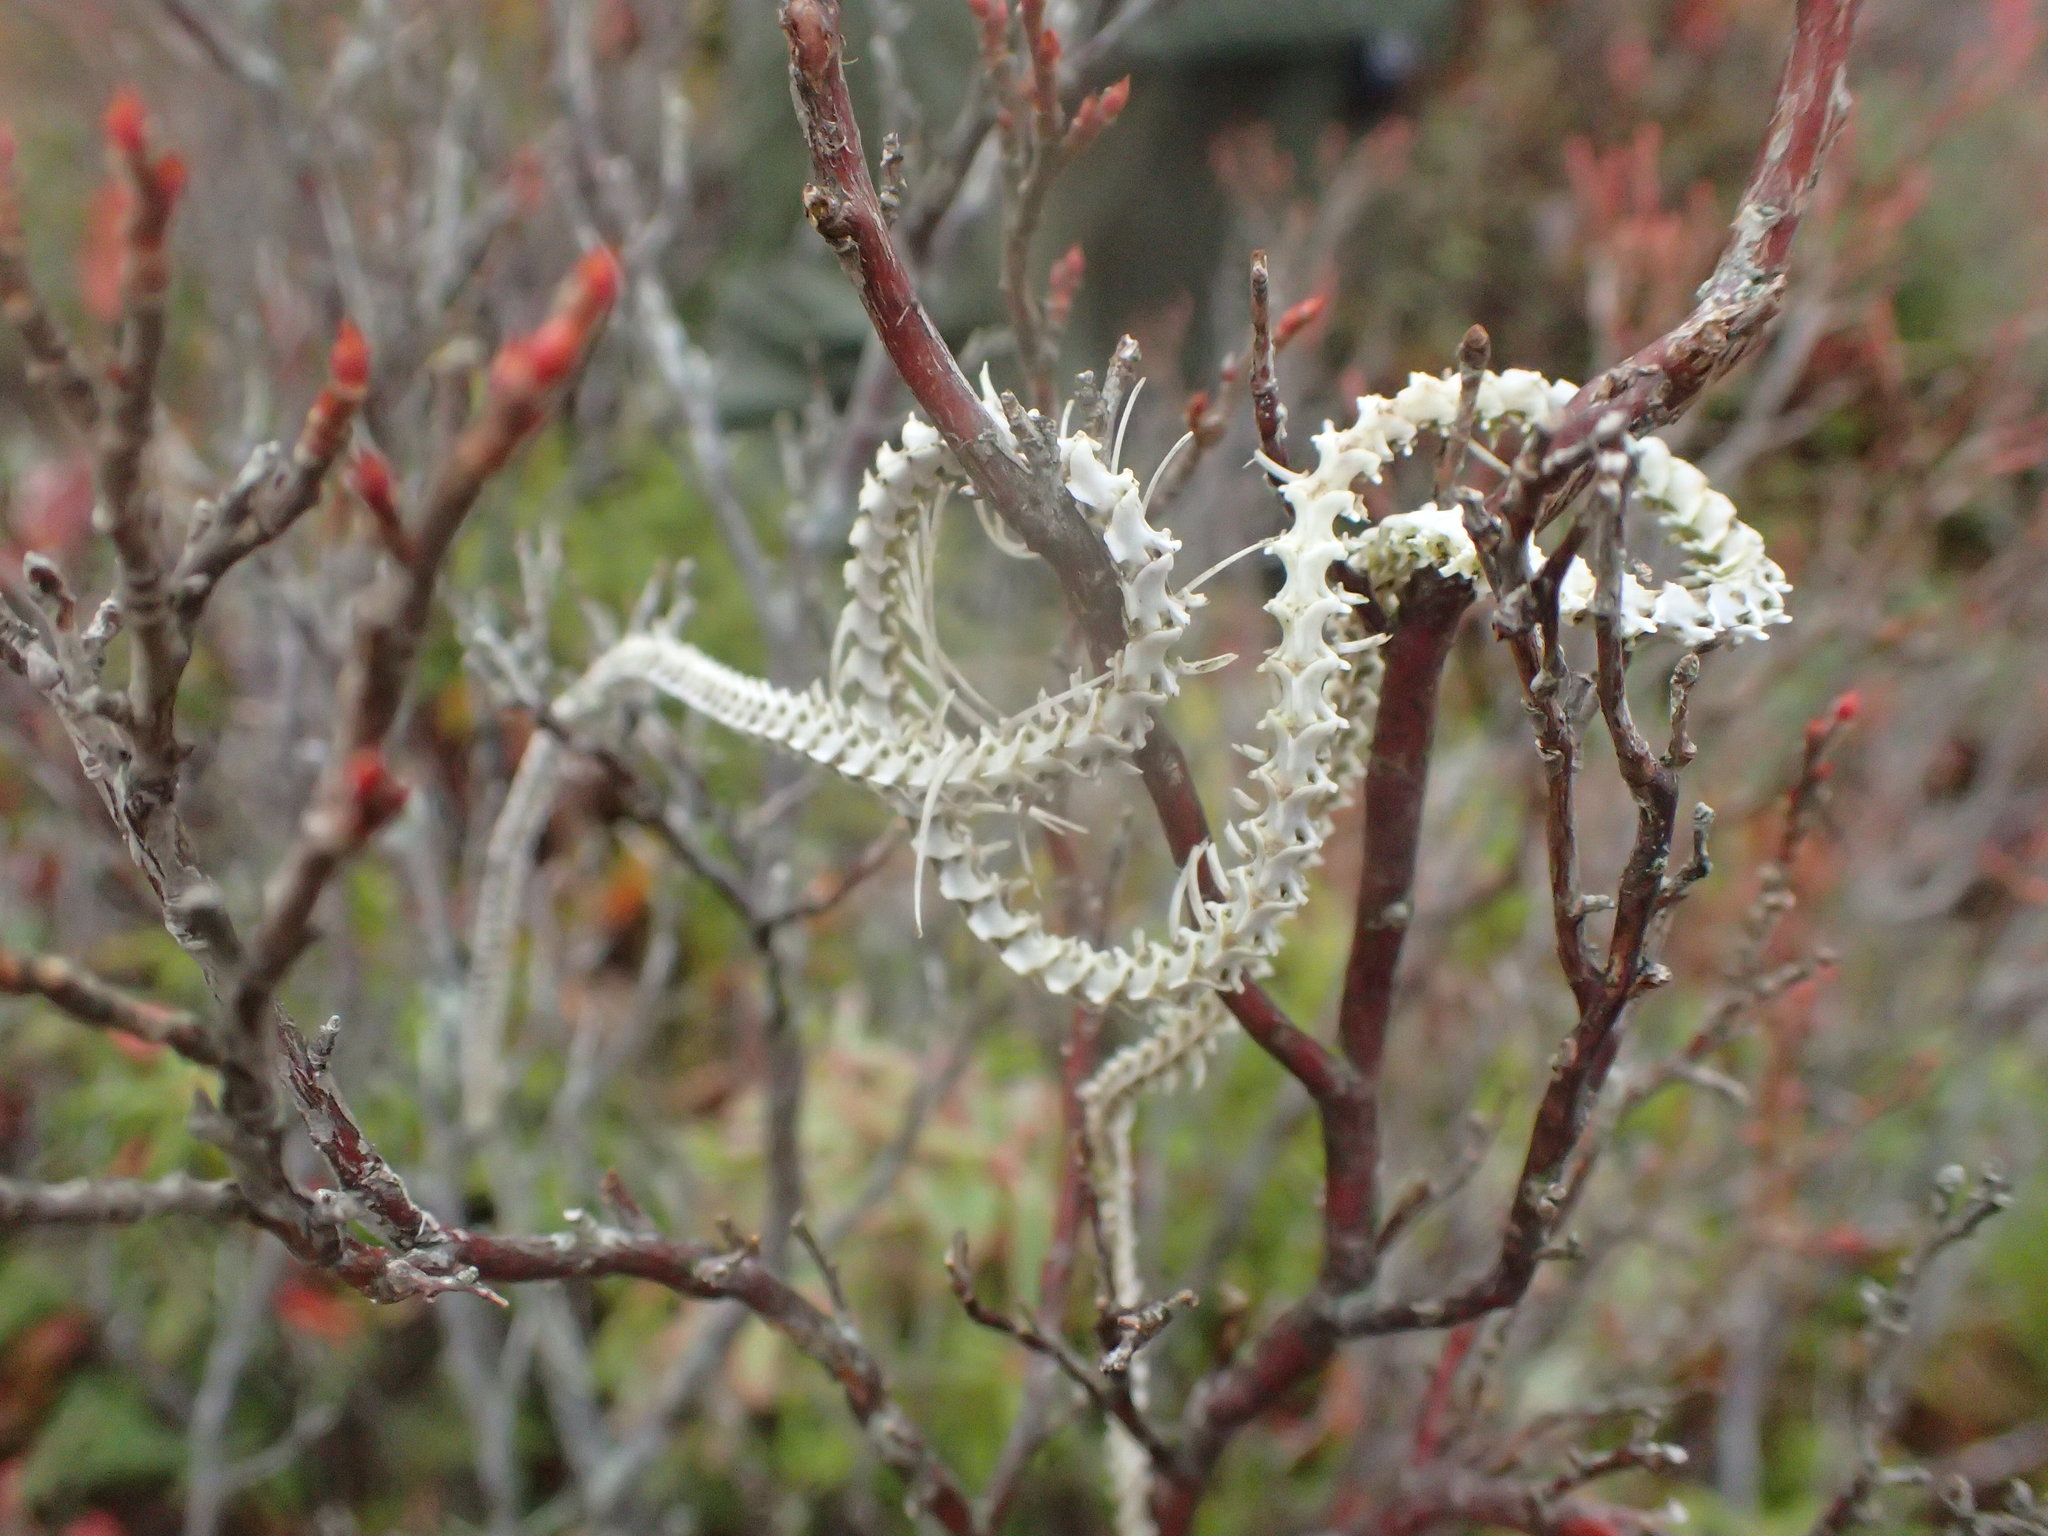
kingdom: Animalia
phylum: Chordata
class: Squamata
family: Colubridae
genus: Thamnophis
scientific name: Thamnophis sirtalis
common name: Common garter snake
